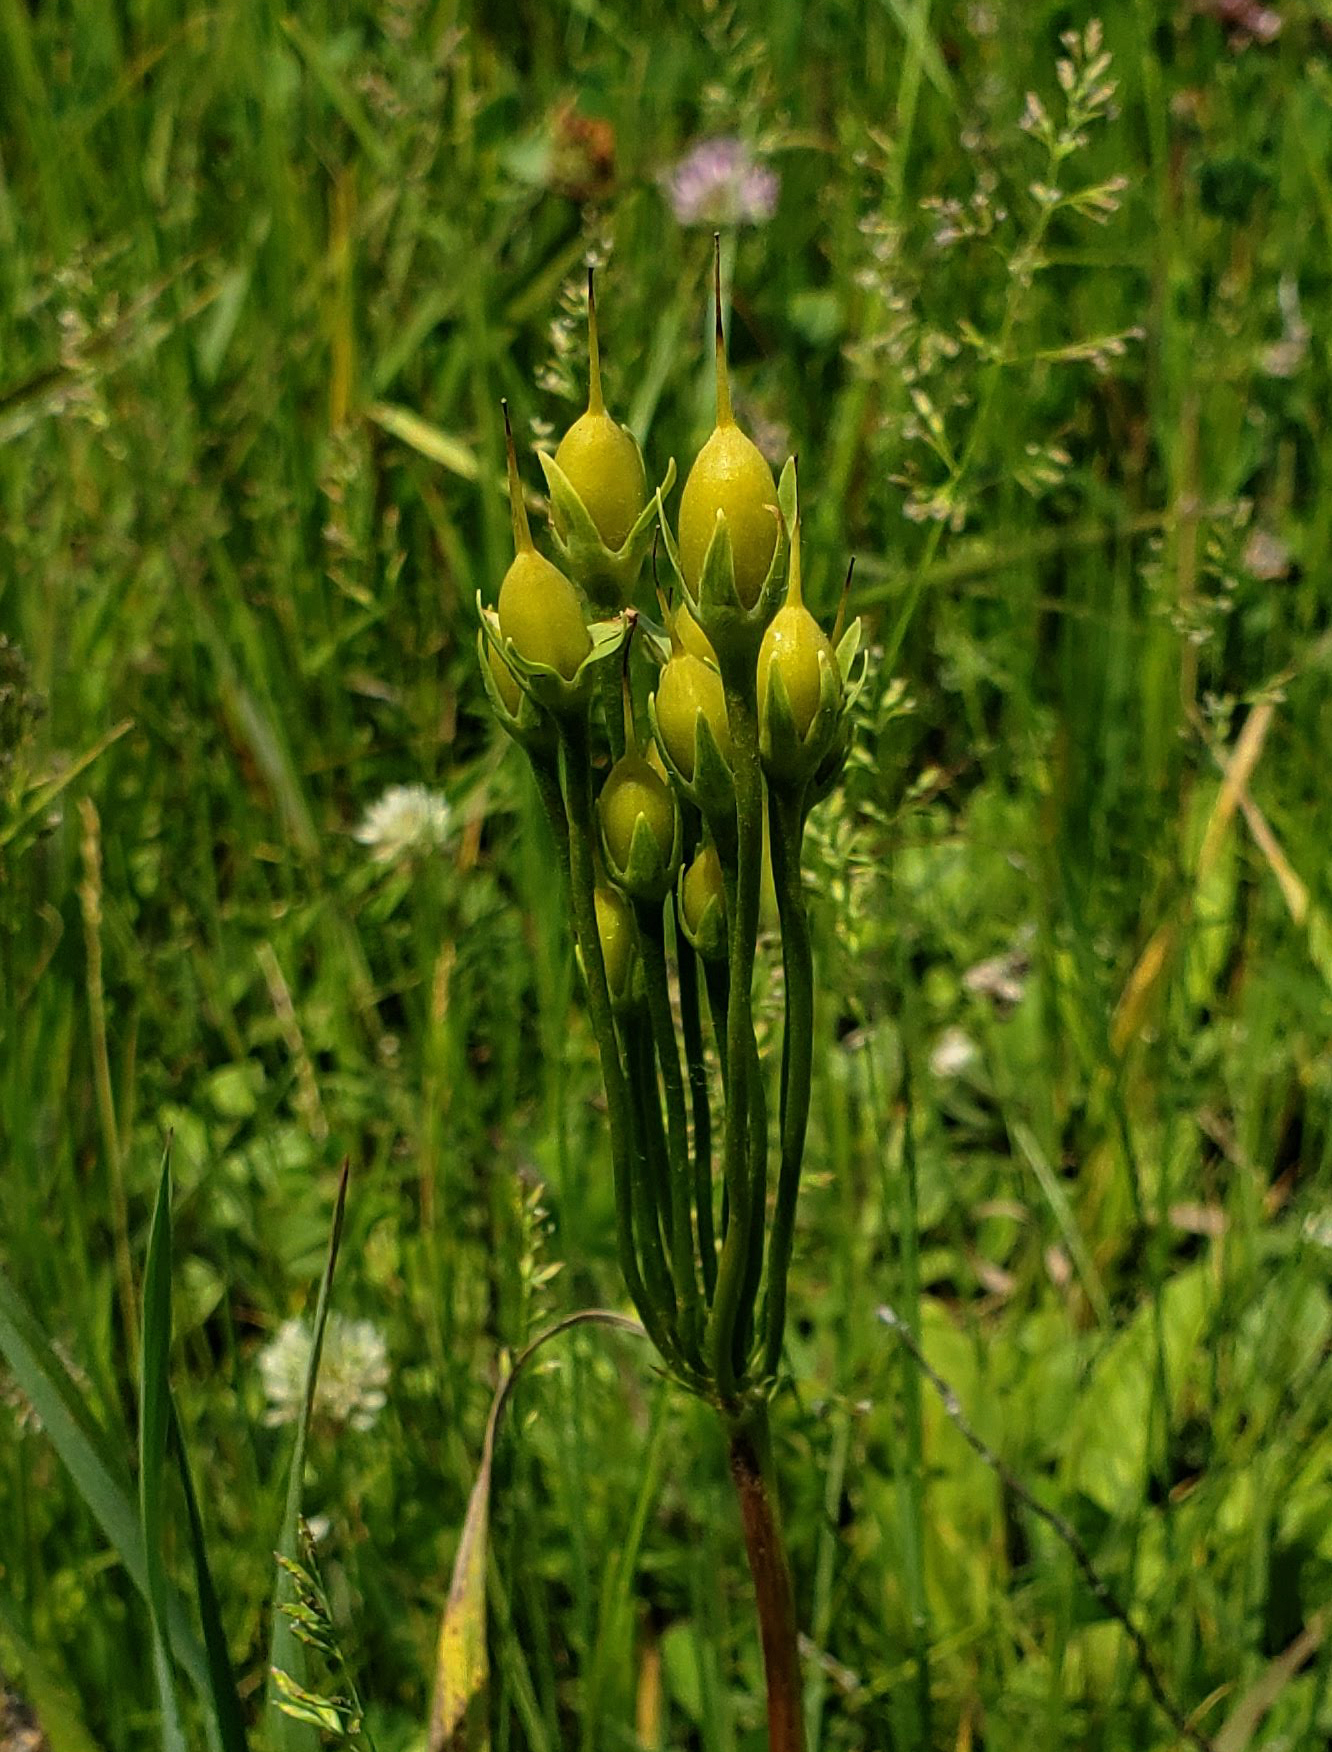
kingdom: Plantae
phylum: Tracheophyta
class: Magnoliopsida
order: Ericales
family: Primulaceae
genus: Dodecatheon
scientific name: Dodecatheon meadia
